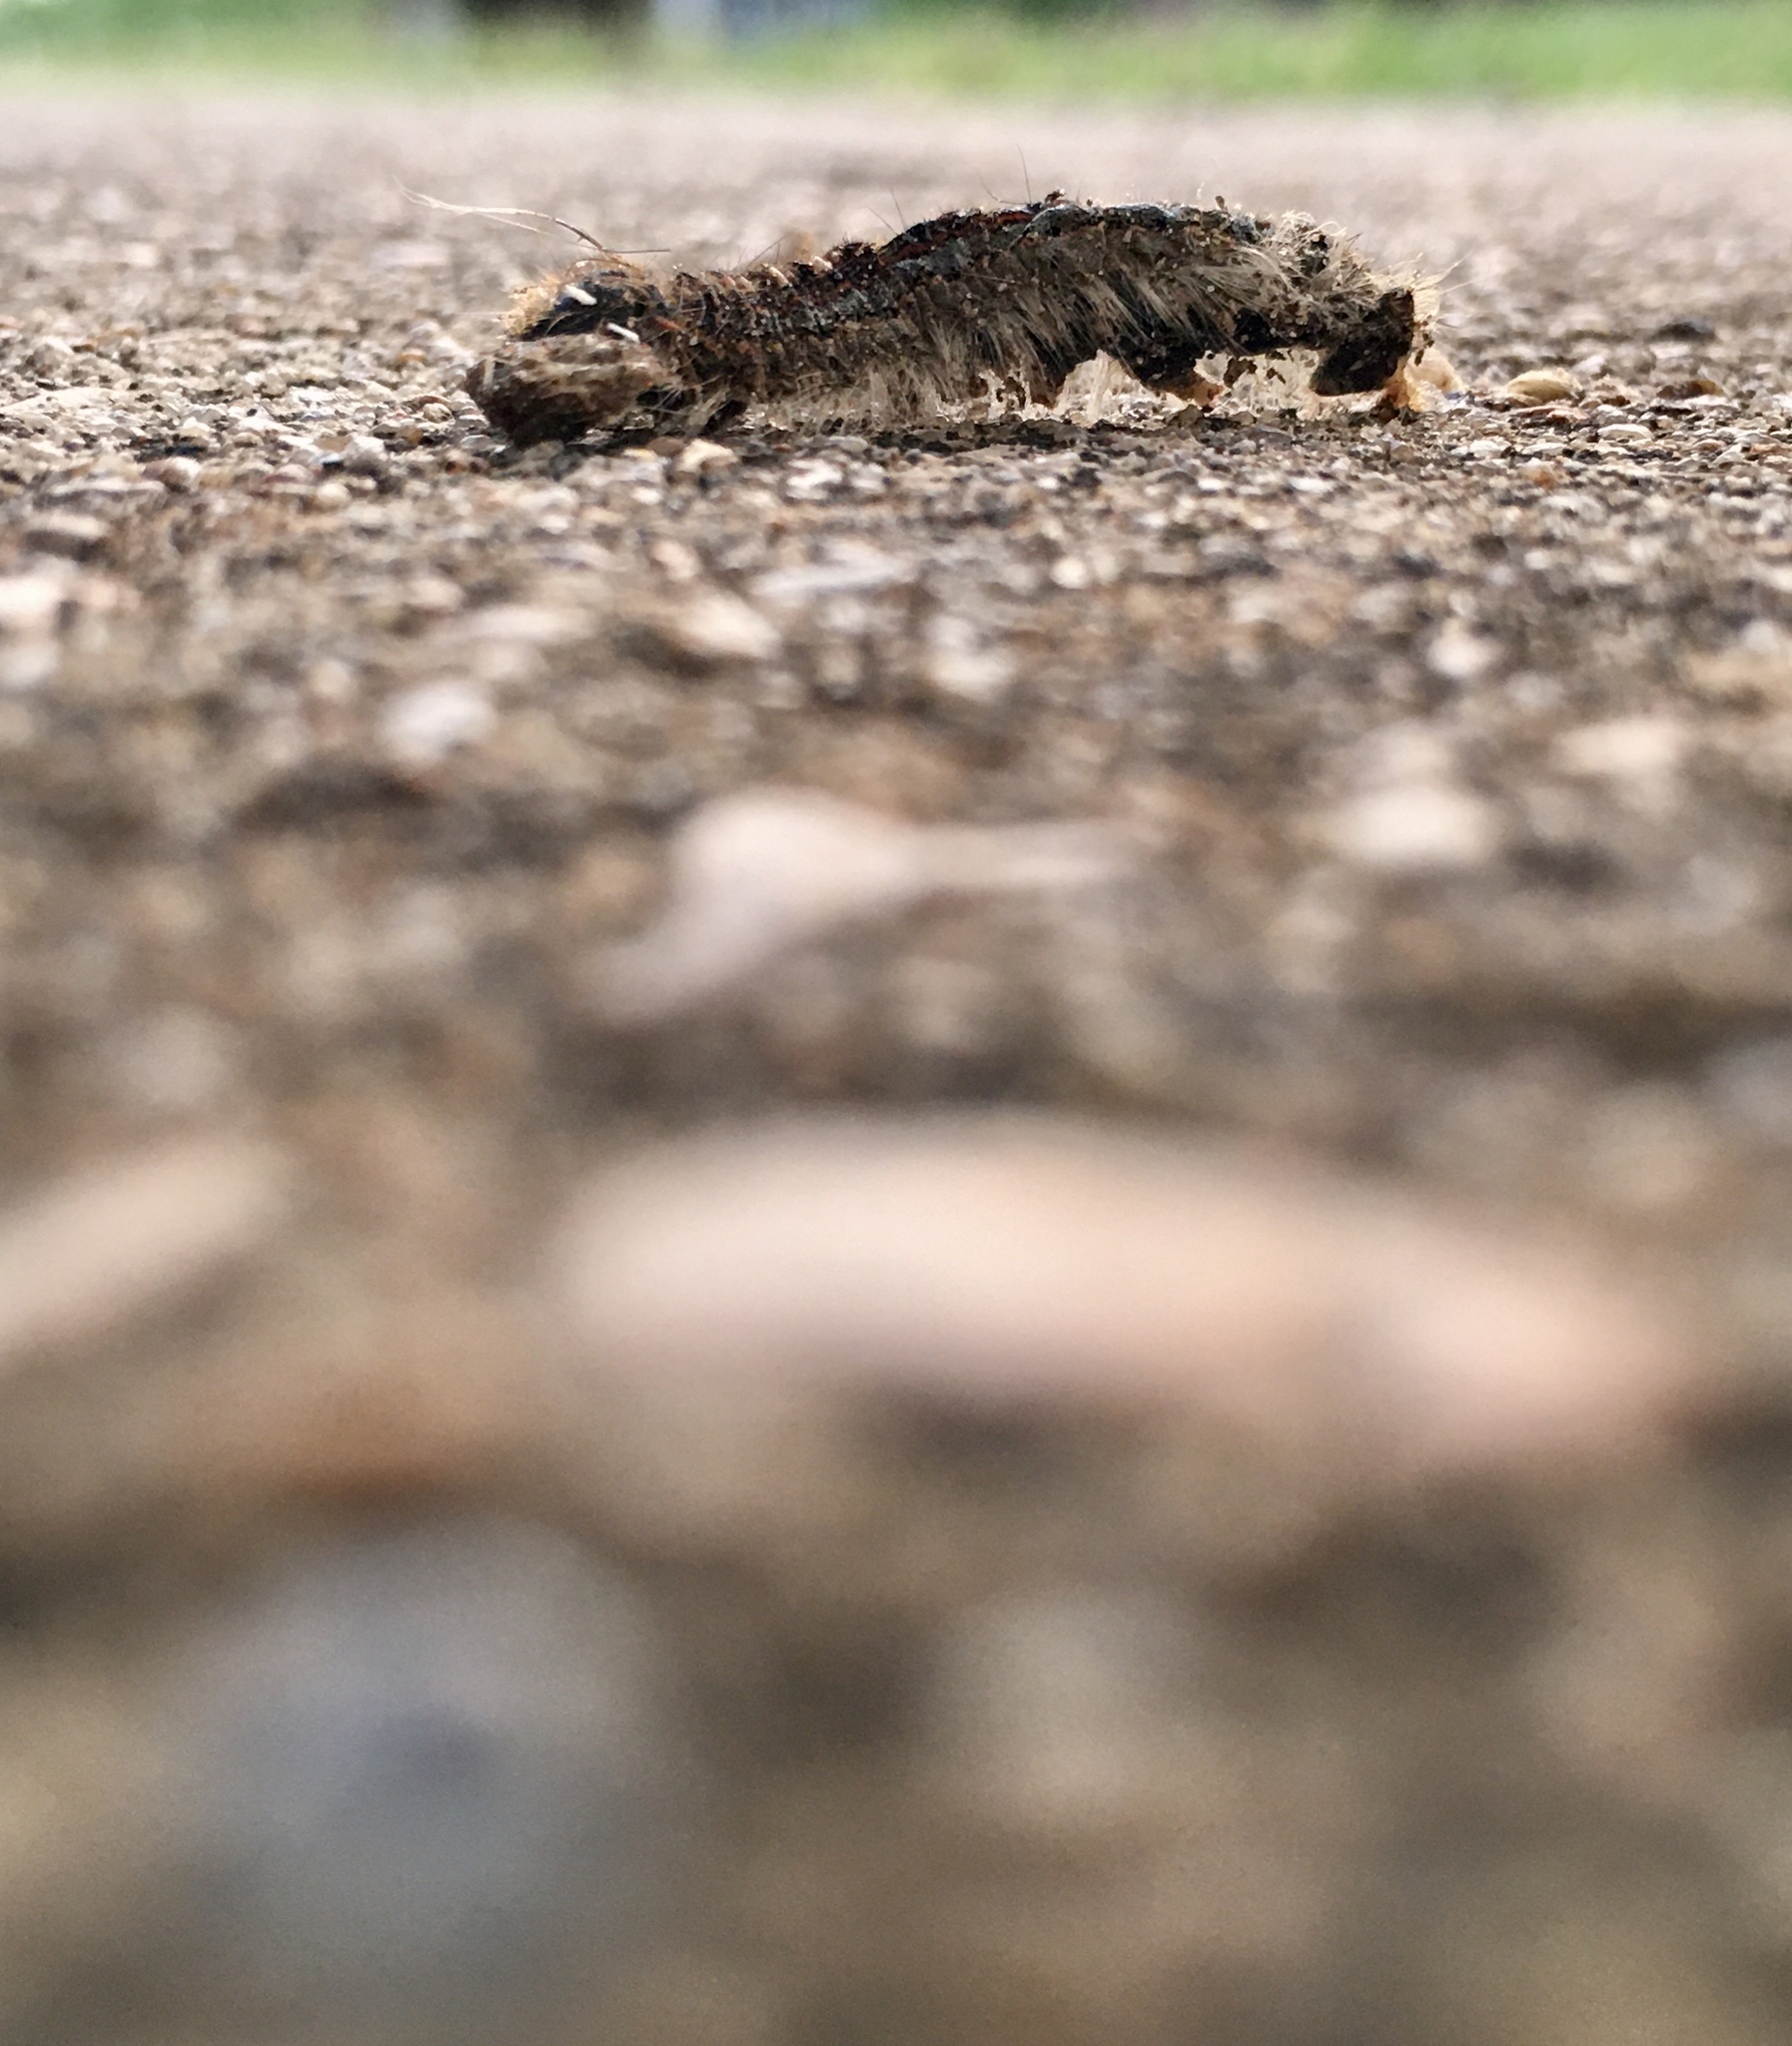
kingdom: Animalia
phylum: Arthropoda
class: Insecta
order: Lepidoptera
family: Lasiocampidae
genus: Malacosoma
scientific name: Malacosoma disstria
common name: Forest tent caterpillar
